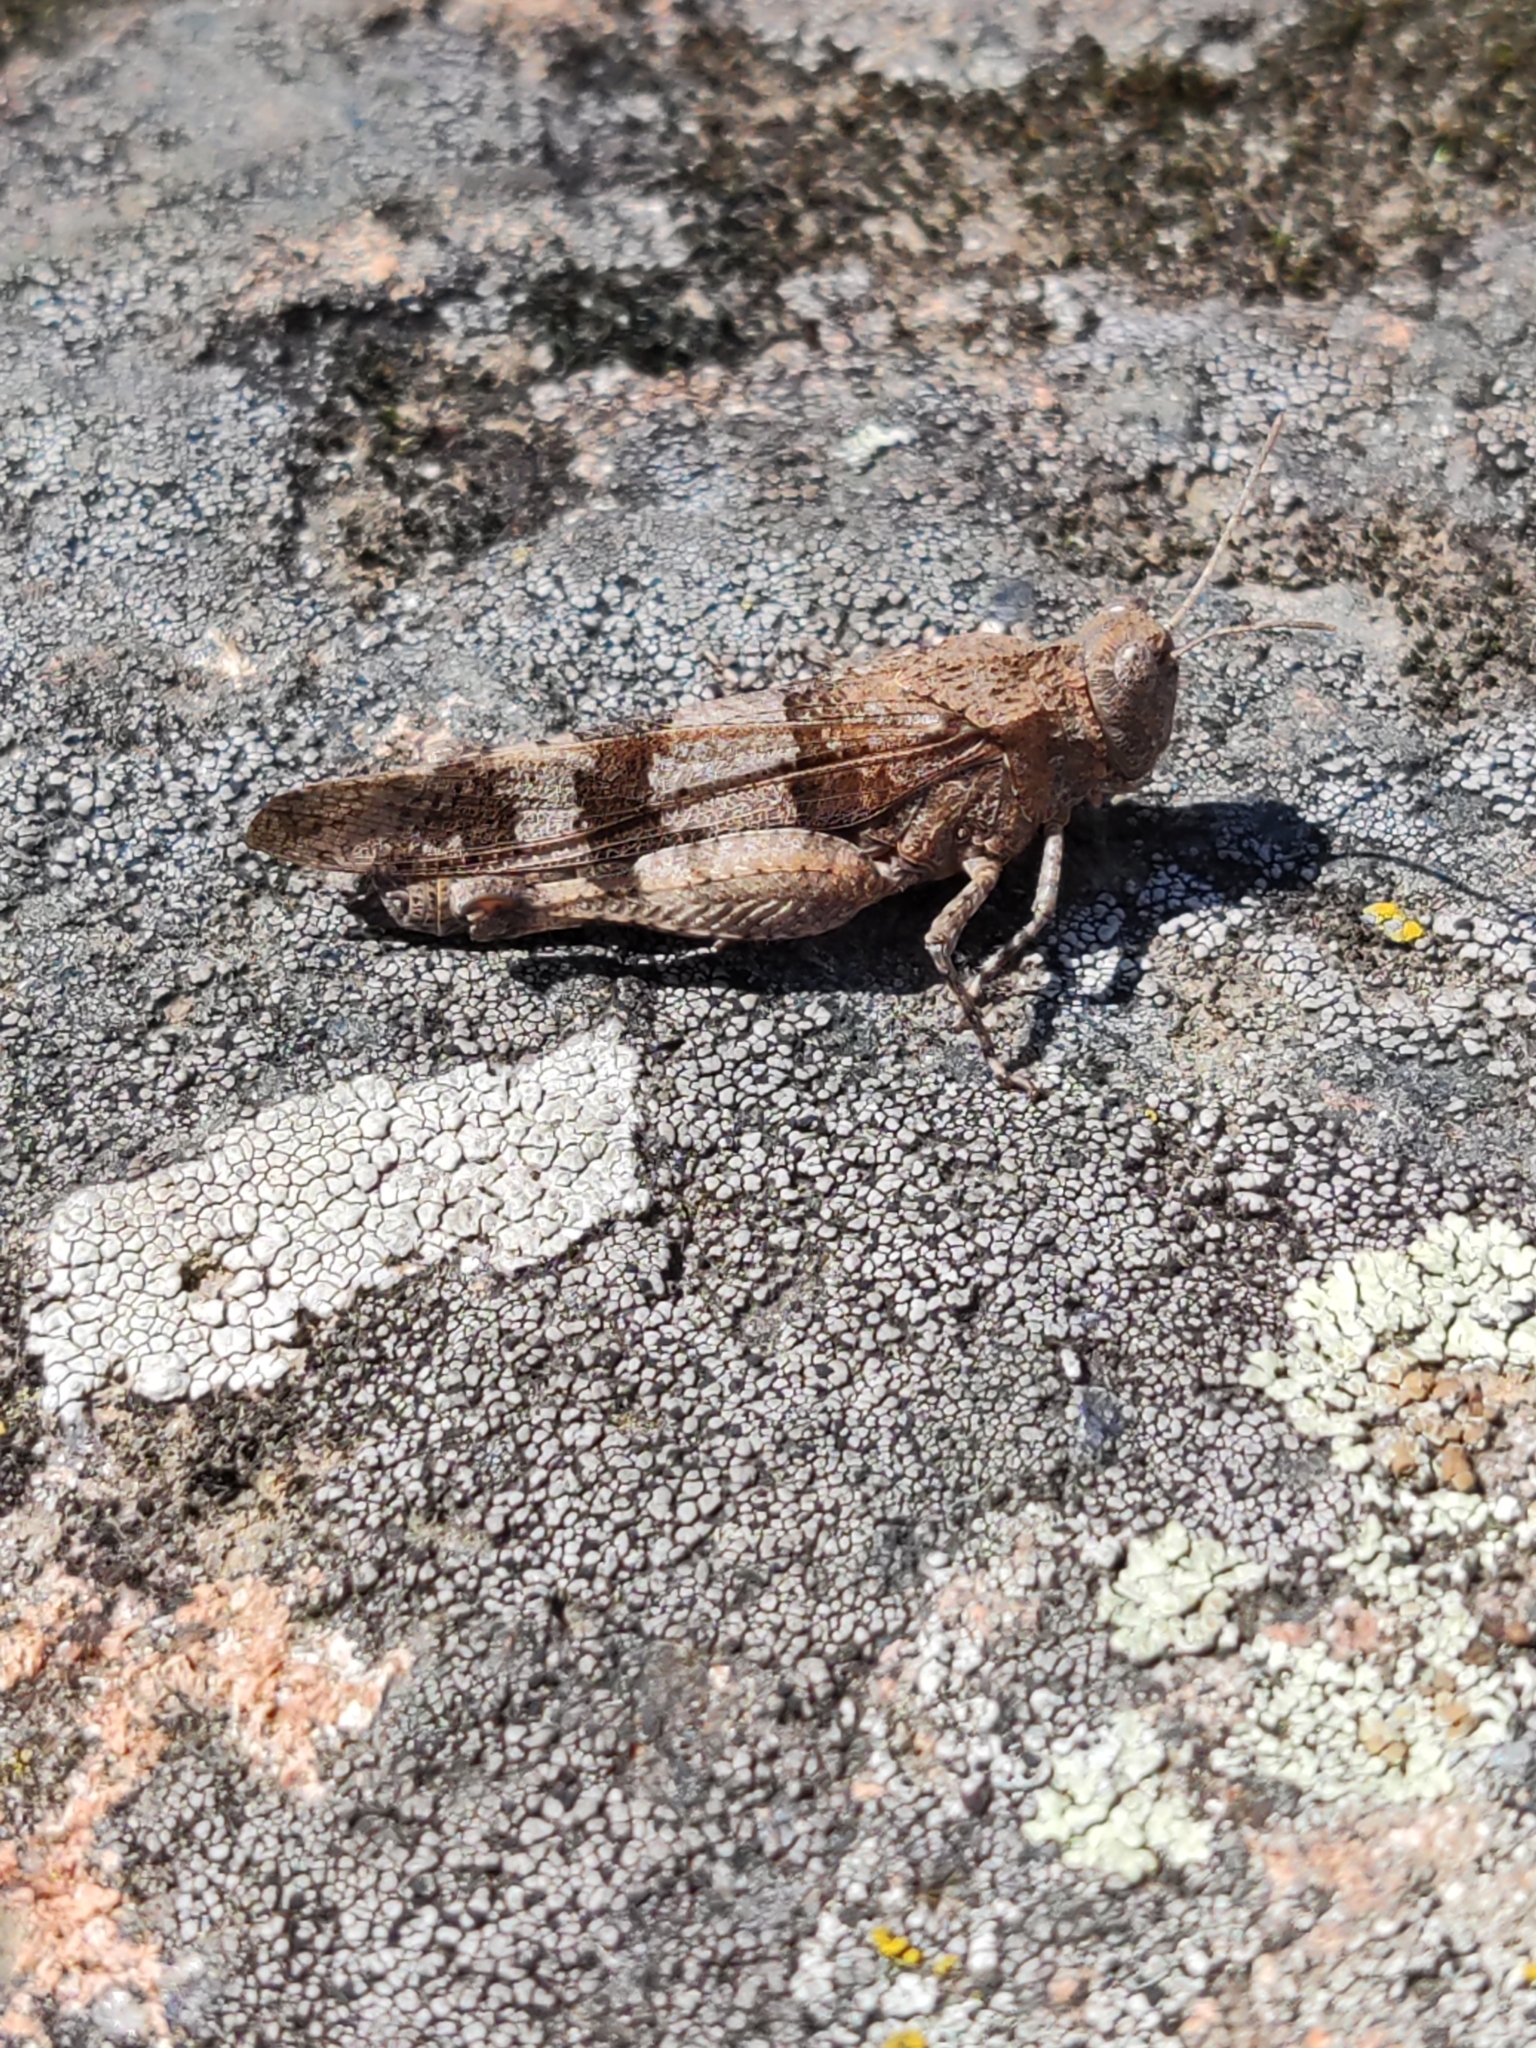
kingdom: Animalia
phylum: Arthropoda
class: Insecta
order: Orthoptera
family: Acrididae
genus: Oedipoda
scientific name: Oedipoda caerulescens
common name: Blue-winged grasshopper
